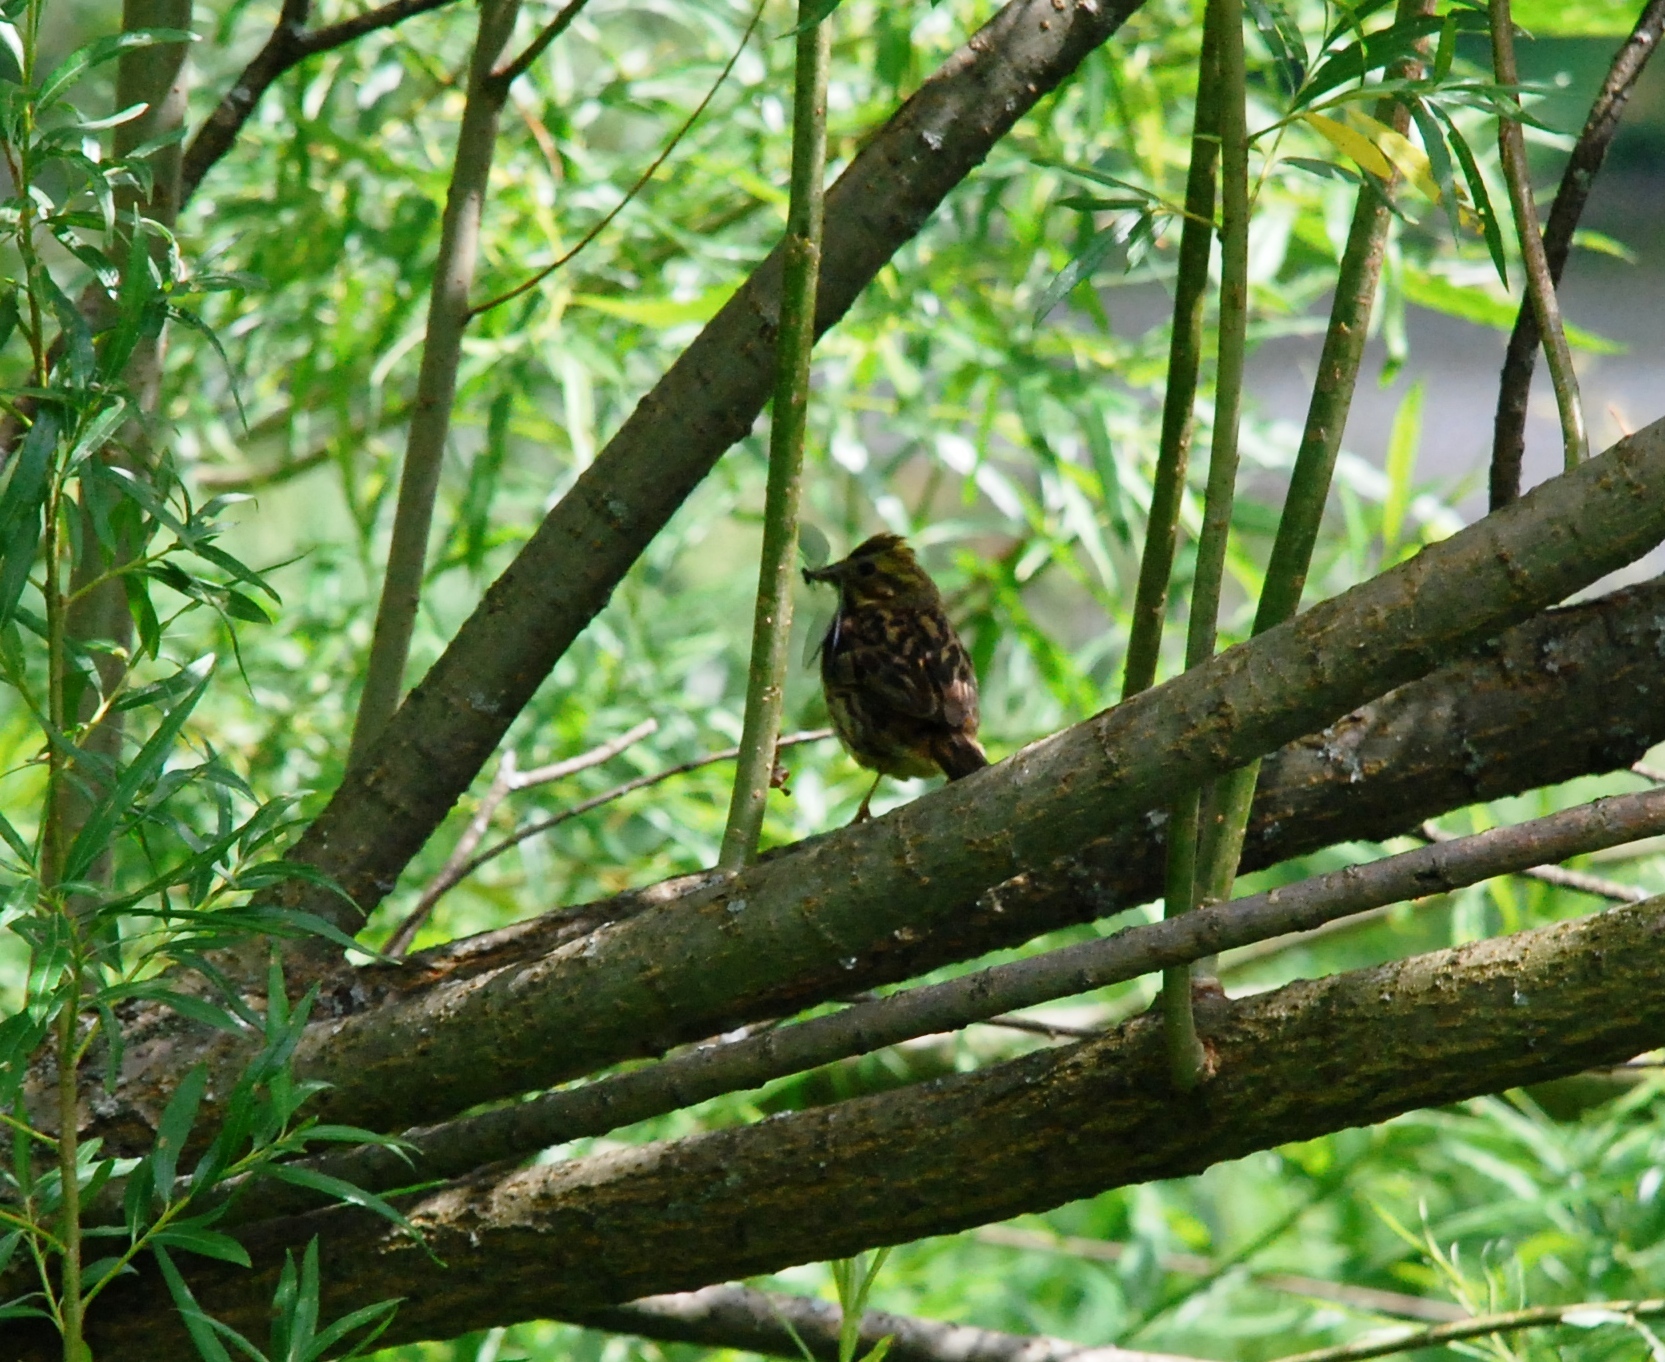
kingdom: Animalia
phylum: Chordata
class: Aves
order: Passeriformes
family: Emberizidae
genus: Emberiza
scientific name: Emberiza citrinella
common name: Yellowhammer
